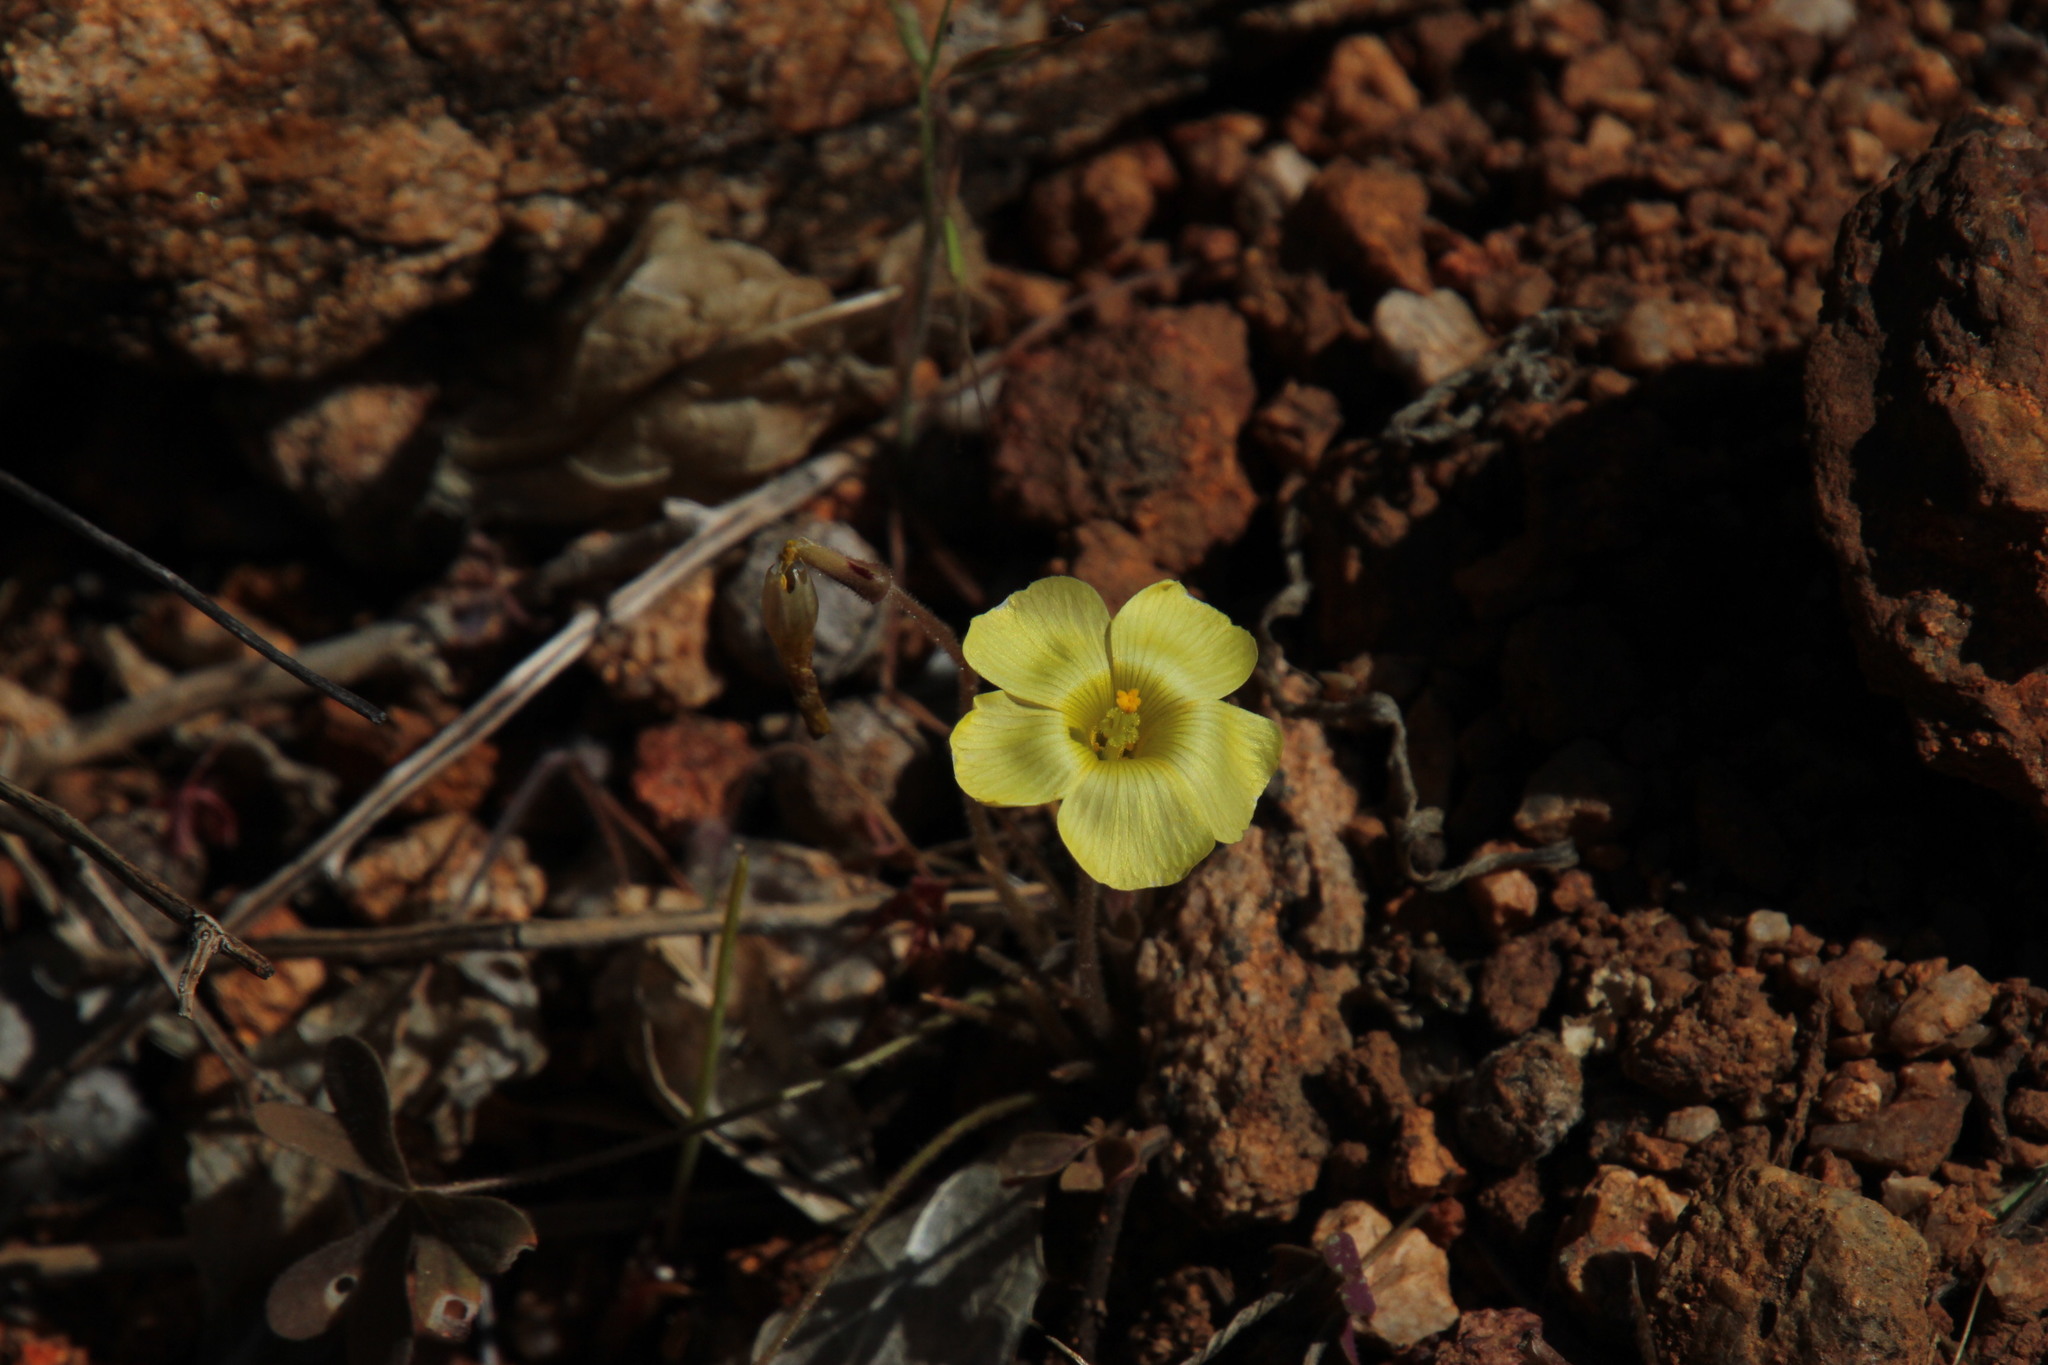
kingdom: Plantae
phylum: Tracheophyta
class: Magnoliopsida
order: Oxalidales
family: Oxalidaceae
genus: Oxalis
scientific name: Oxalis obtusa
